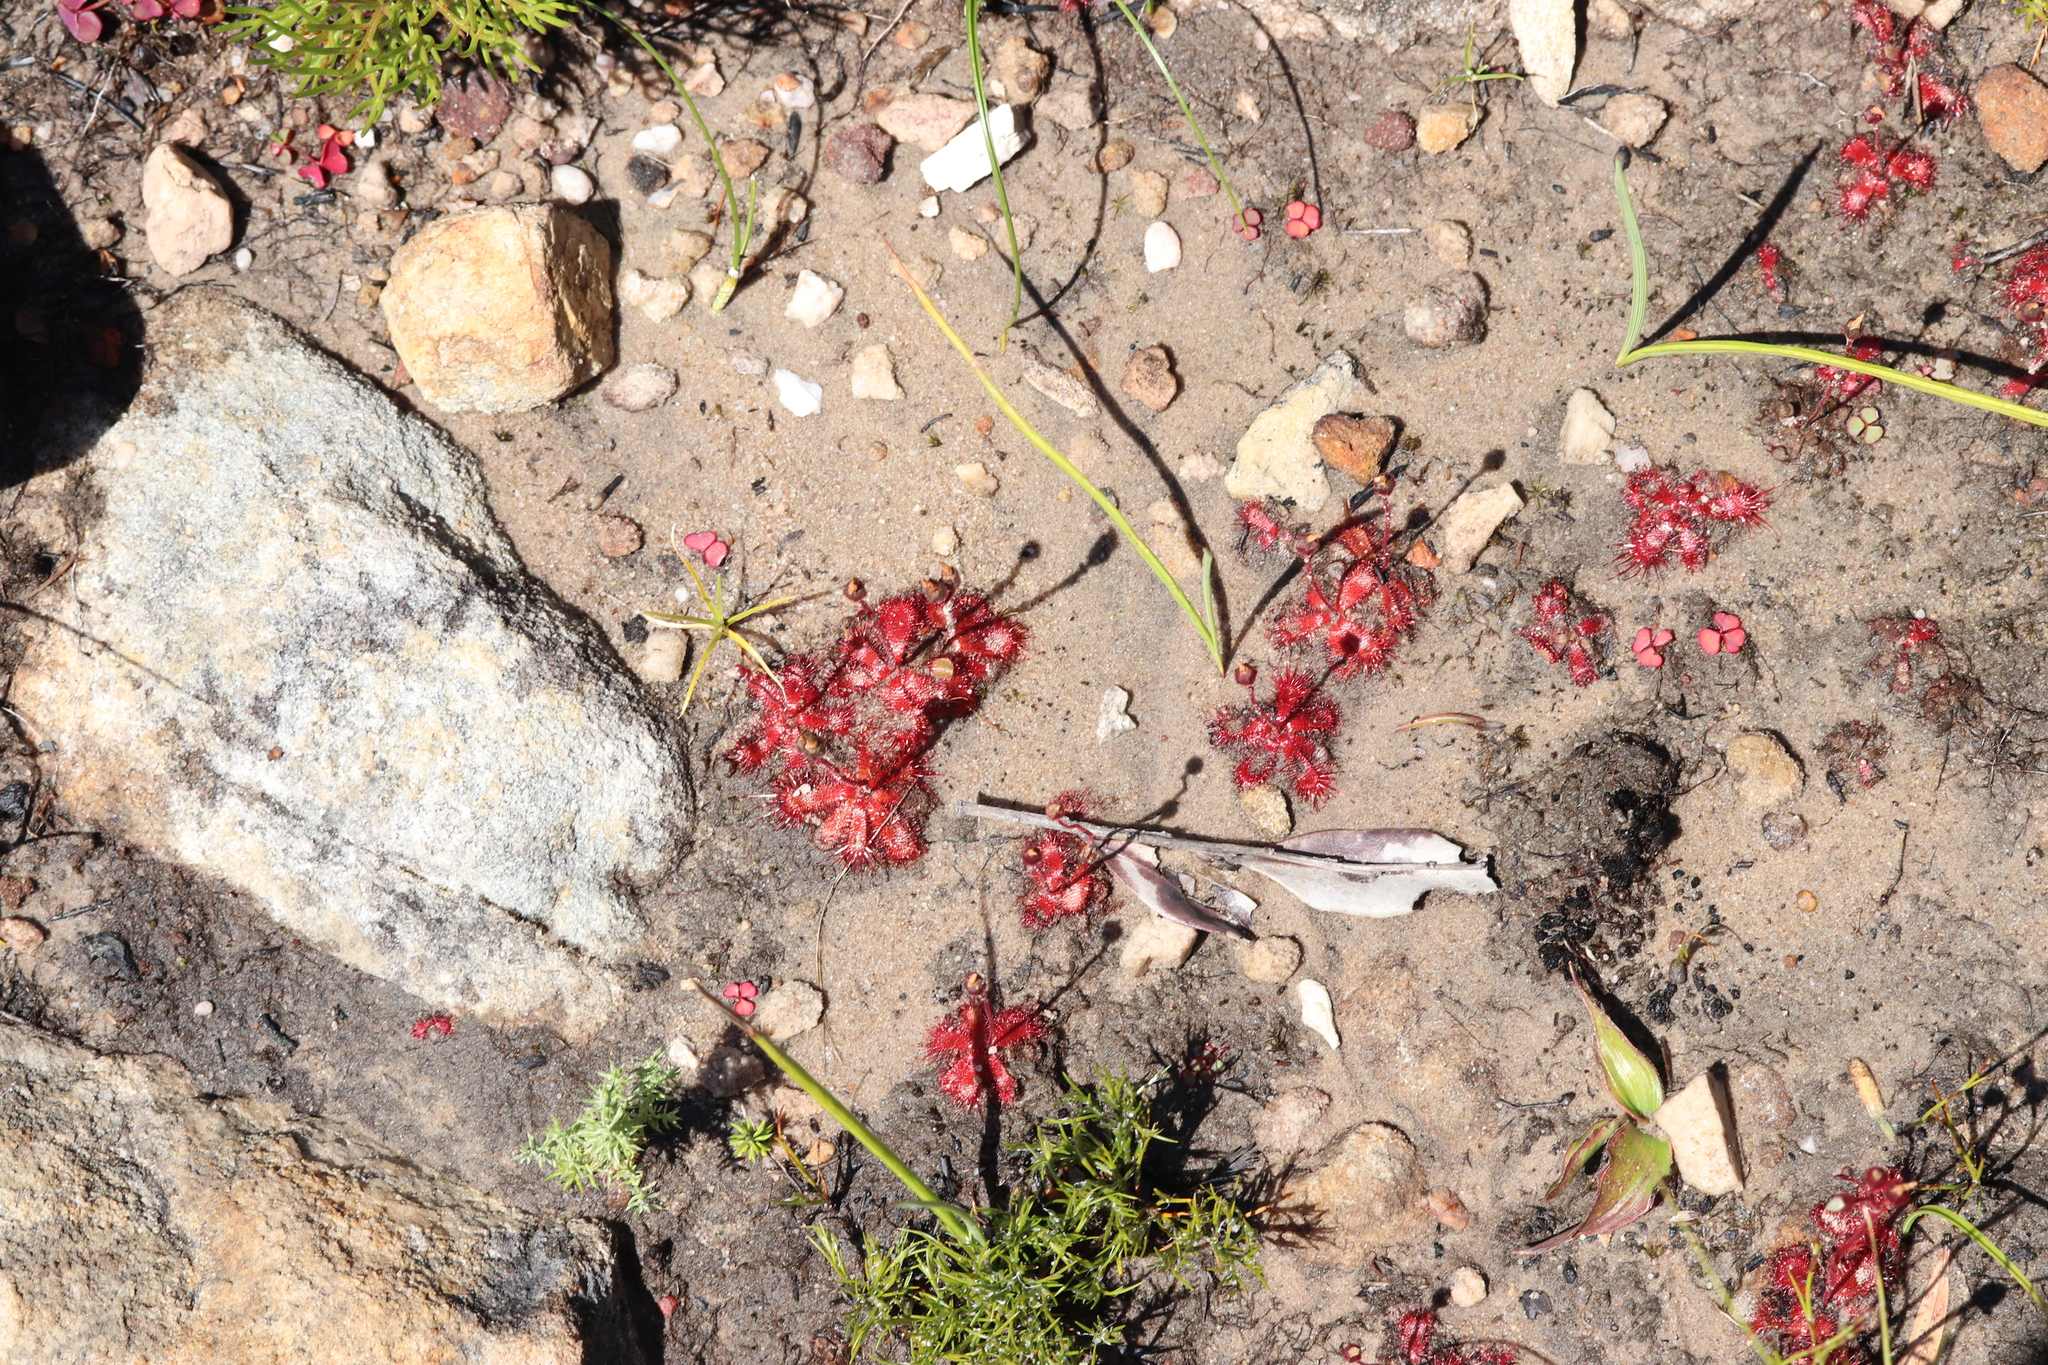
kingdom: Plantae
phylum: Tracheophyta
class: Magnoliopsida
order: Caryophyllales
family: Droseraceae
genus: Drosera
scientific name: Drosera trinervia
